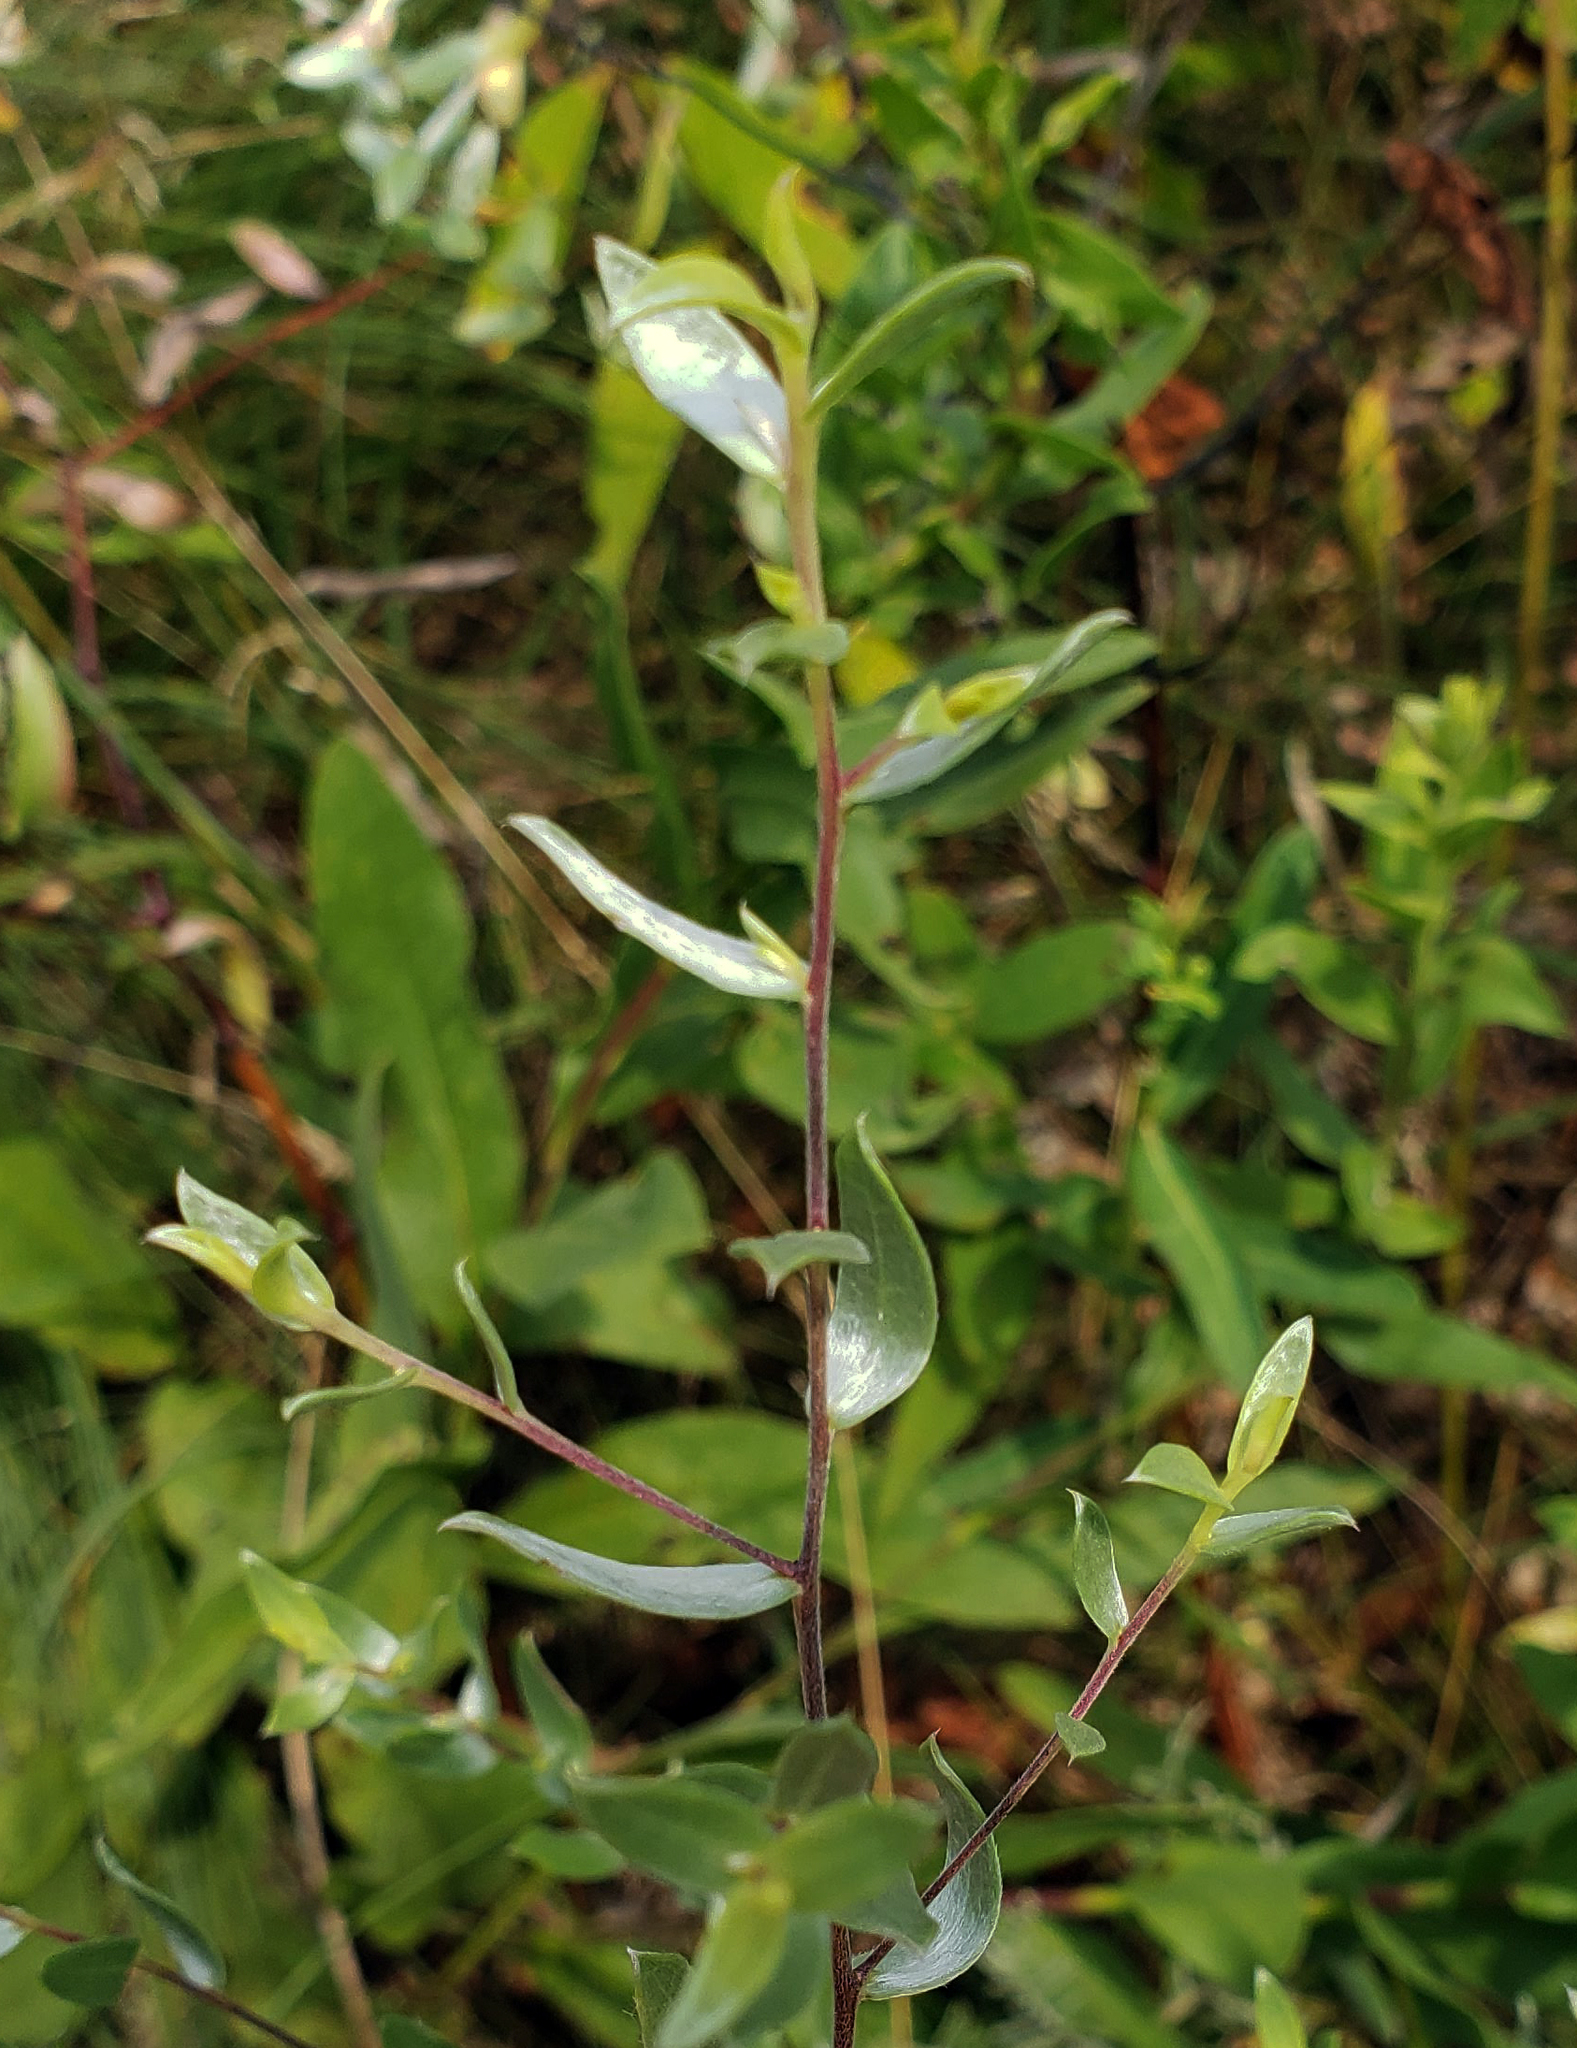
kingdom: Plantae
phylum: Tracheophyta
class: Magnoliopsida
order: Asterales
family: Asteraceae
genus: Symphyotrichum
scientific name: Symphyotrichum sericeum
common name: Silky aster
